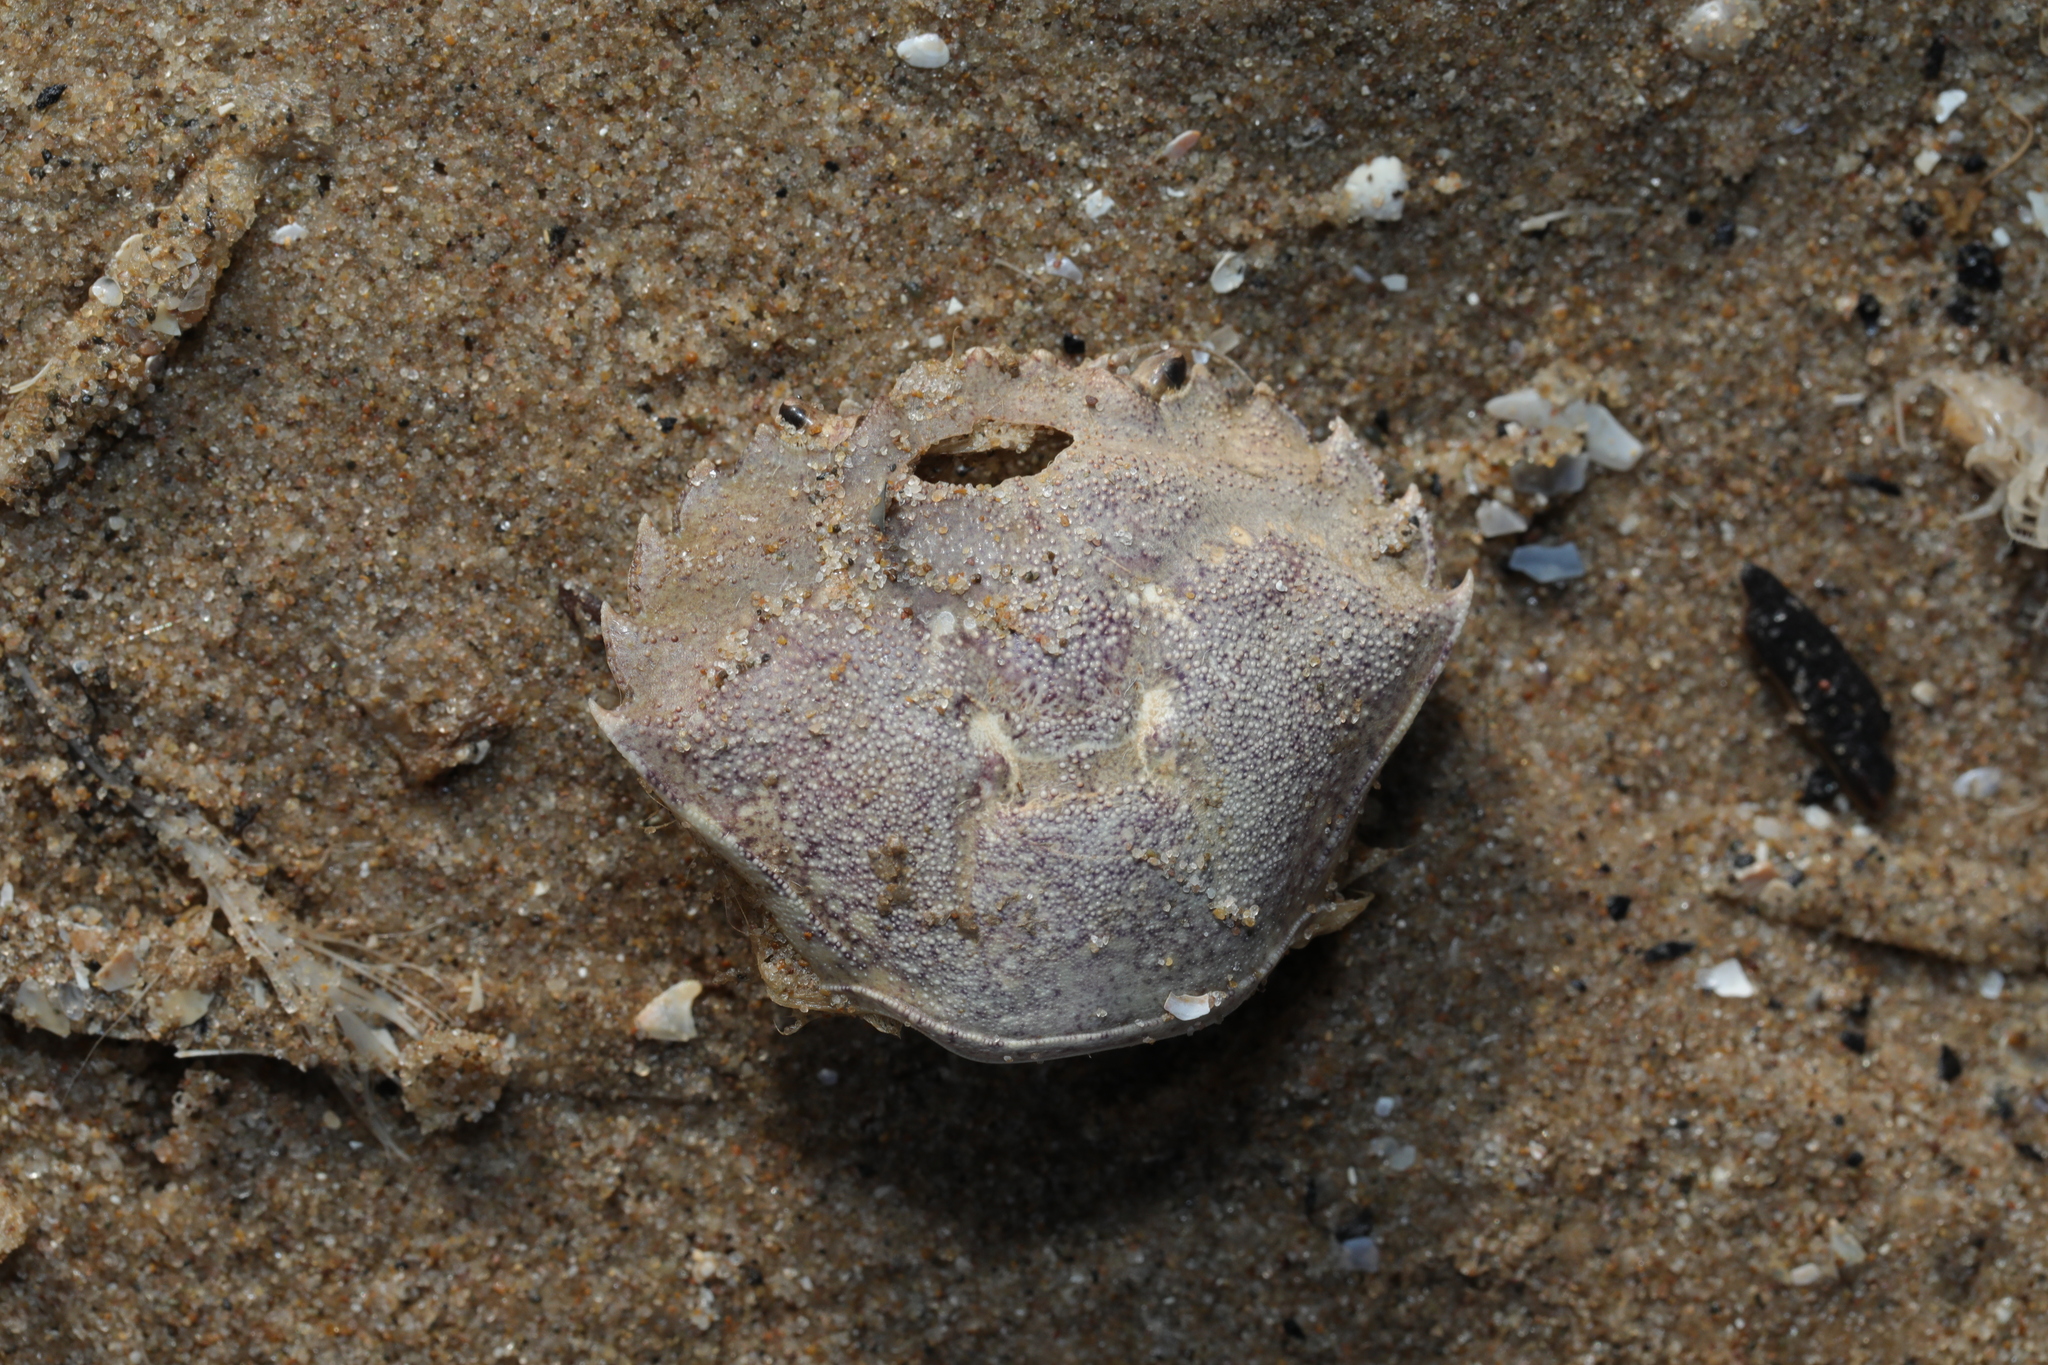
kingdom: Animalia
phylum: Arthropoda
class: Malacostraca
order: Decapoda
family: Carcinidae
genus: Carcinus
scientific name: Carcinus maenas
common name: European green crab
